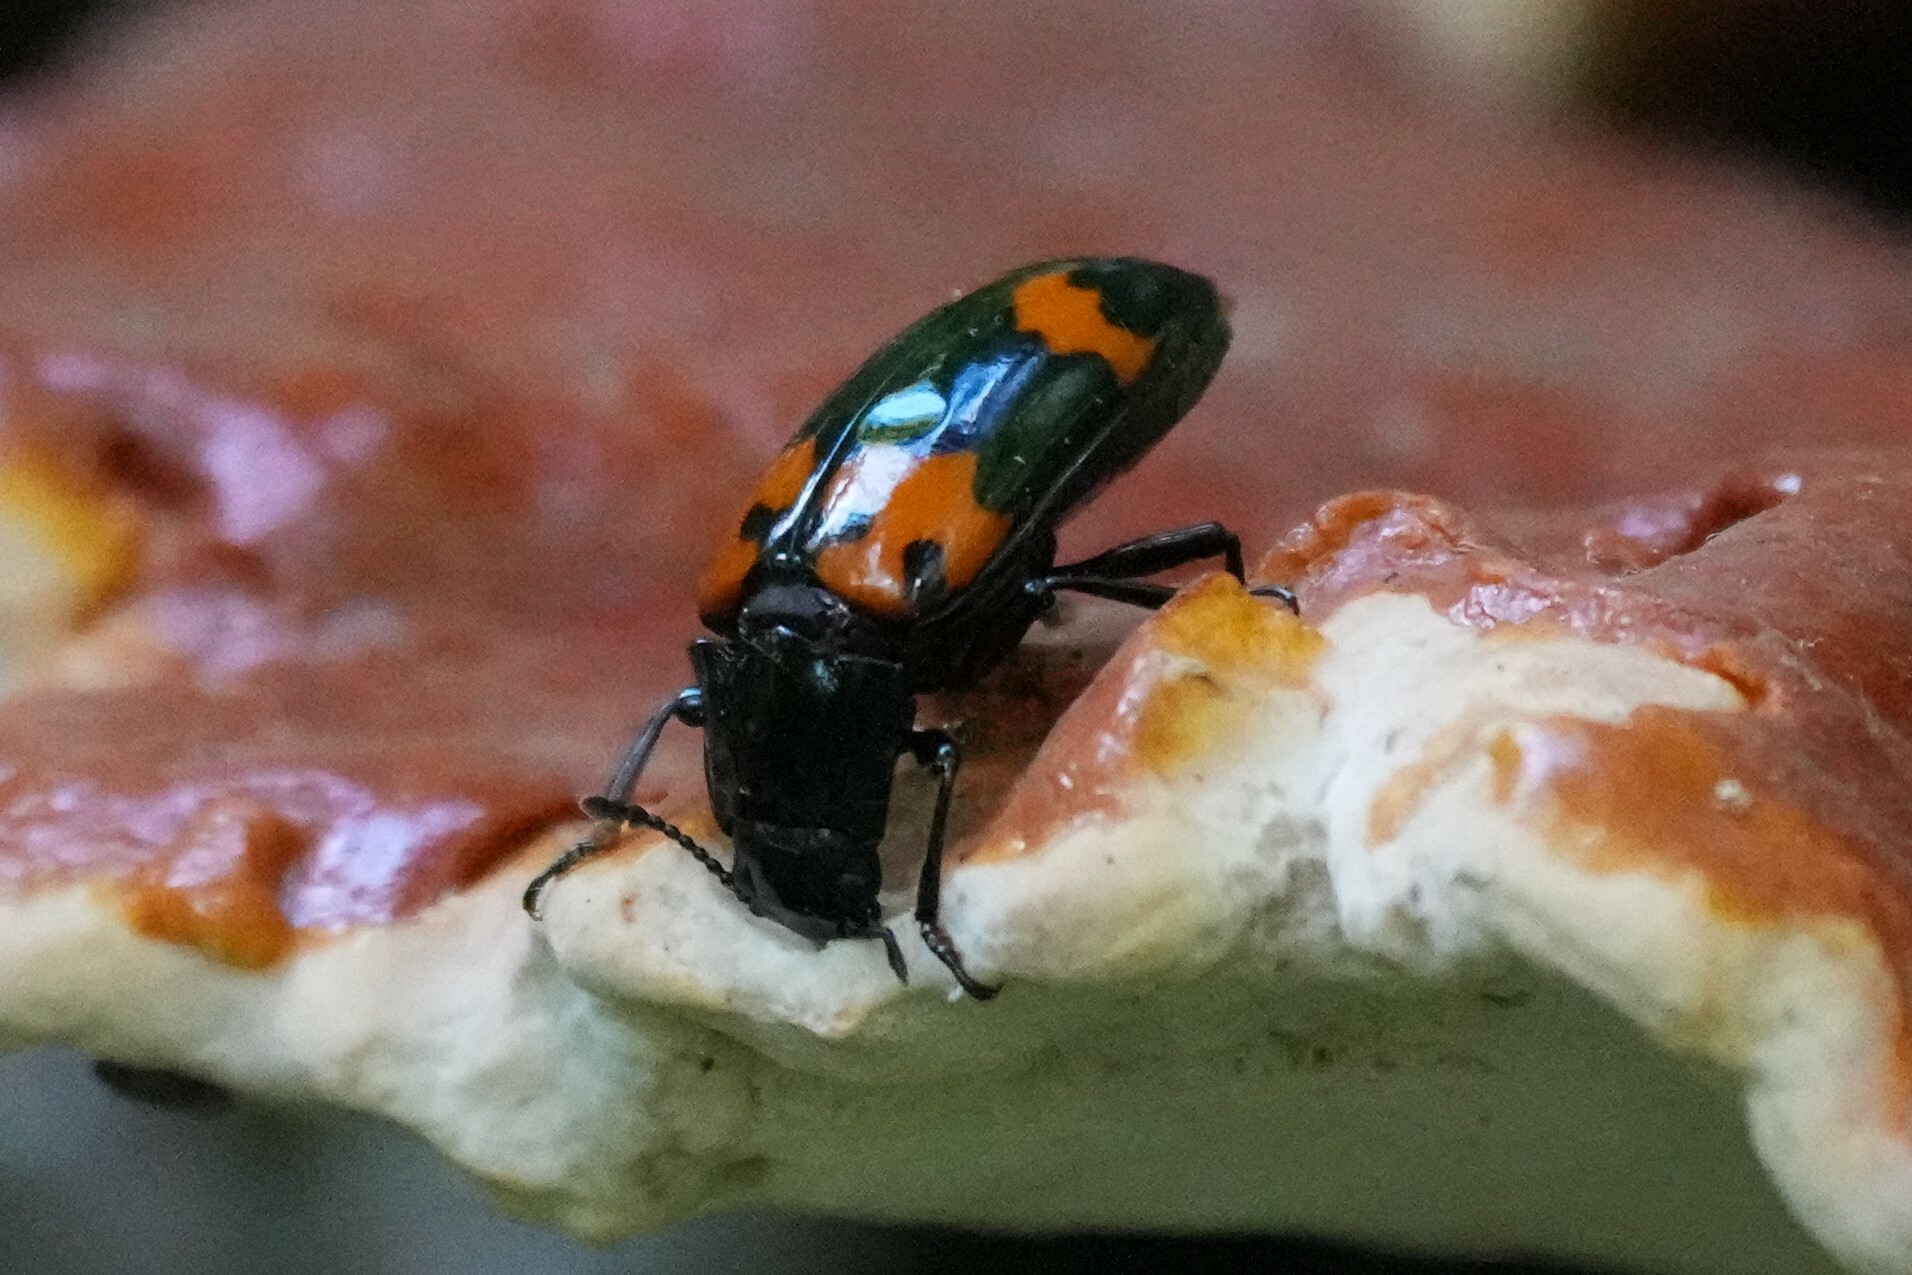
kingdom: Animalia
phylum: Arthropoda
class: Insecta
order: Coleoptera
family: Erotylidae
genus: Megalodacne
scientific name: Megalodacne heros
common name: Pleasing fungus beetle
